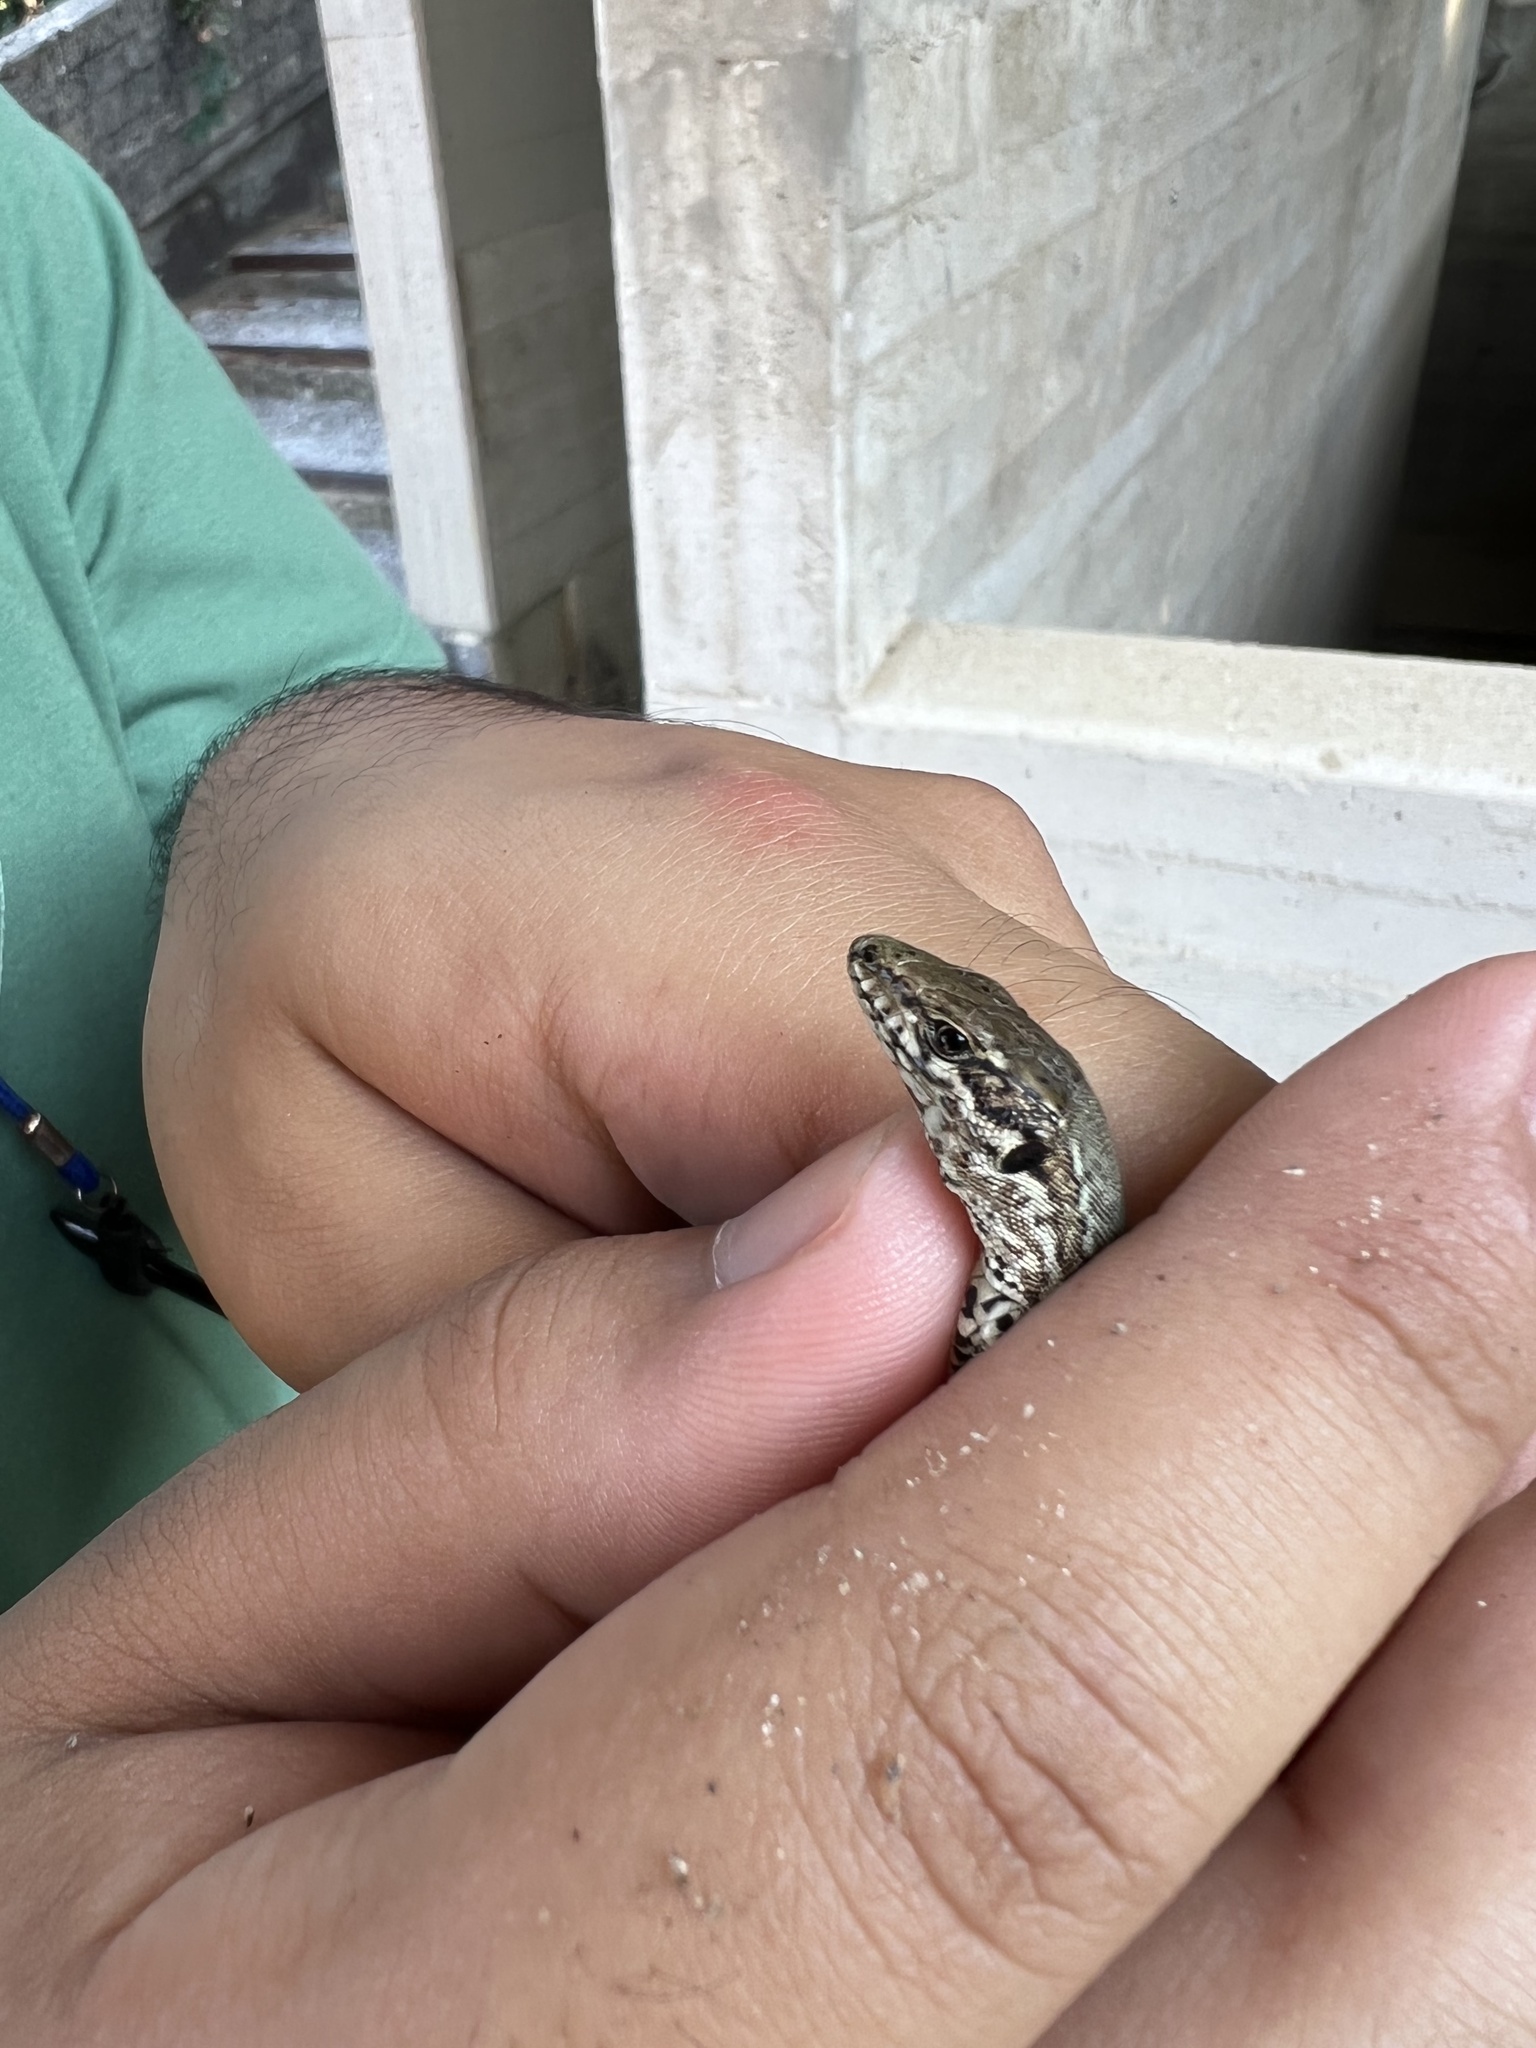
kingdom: Animalia
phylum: Chordata
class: Squamata
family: Lacertidae
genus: Podarcis
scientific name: Podarcis muralis
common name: Common wall lizard
